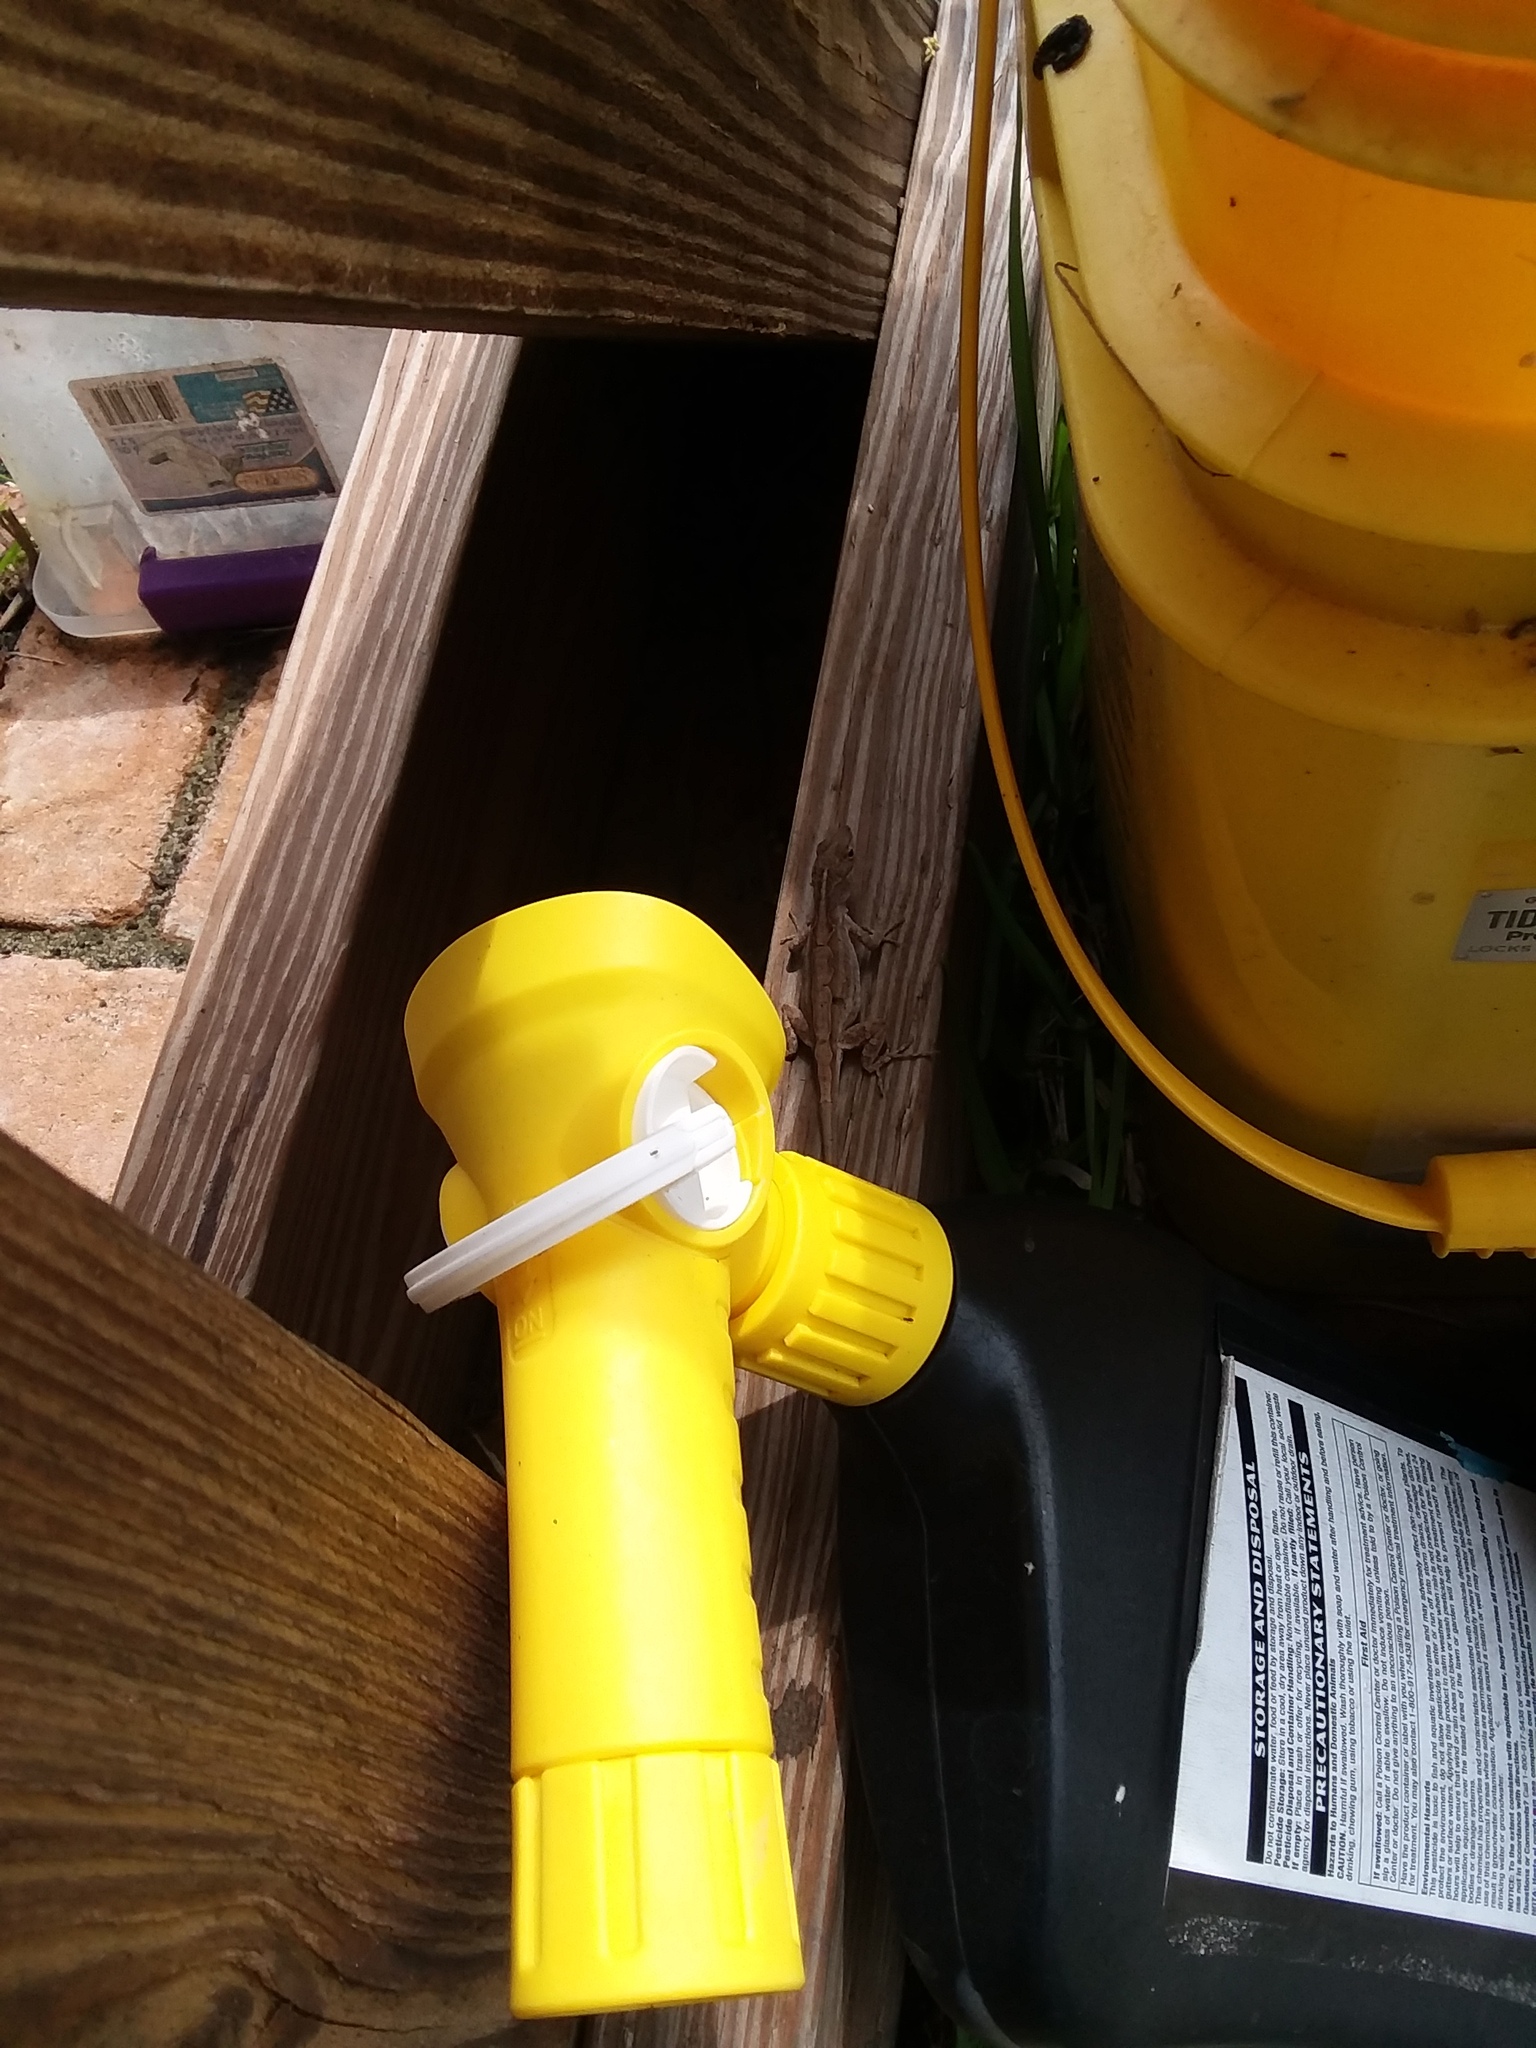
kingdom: Animalia
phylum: Chordata
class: Squamata
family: Dactyloidae
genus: Anolis
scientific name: Anolis sagrei
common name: Brown anole
